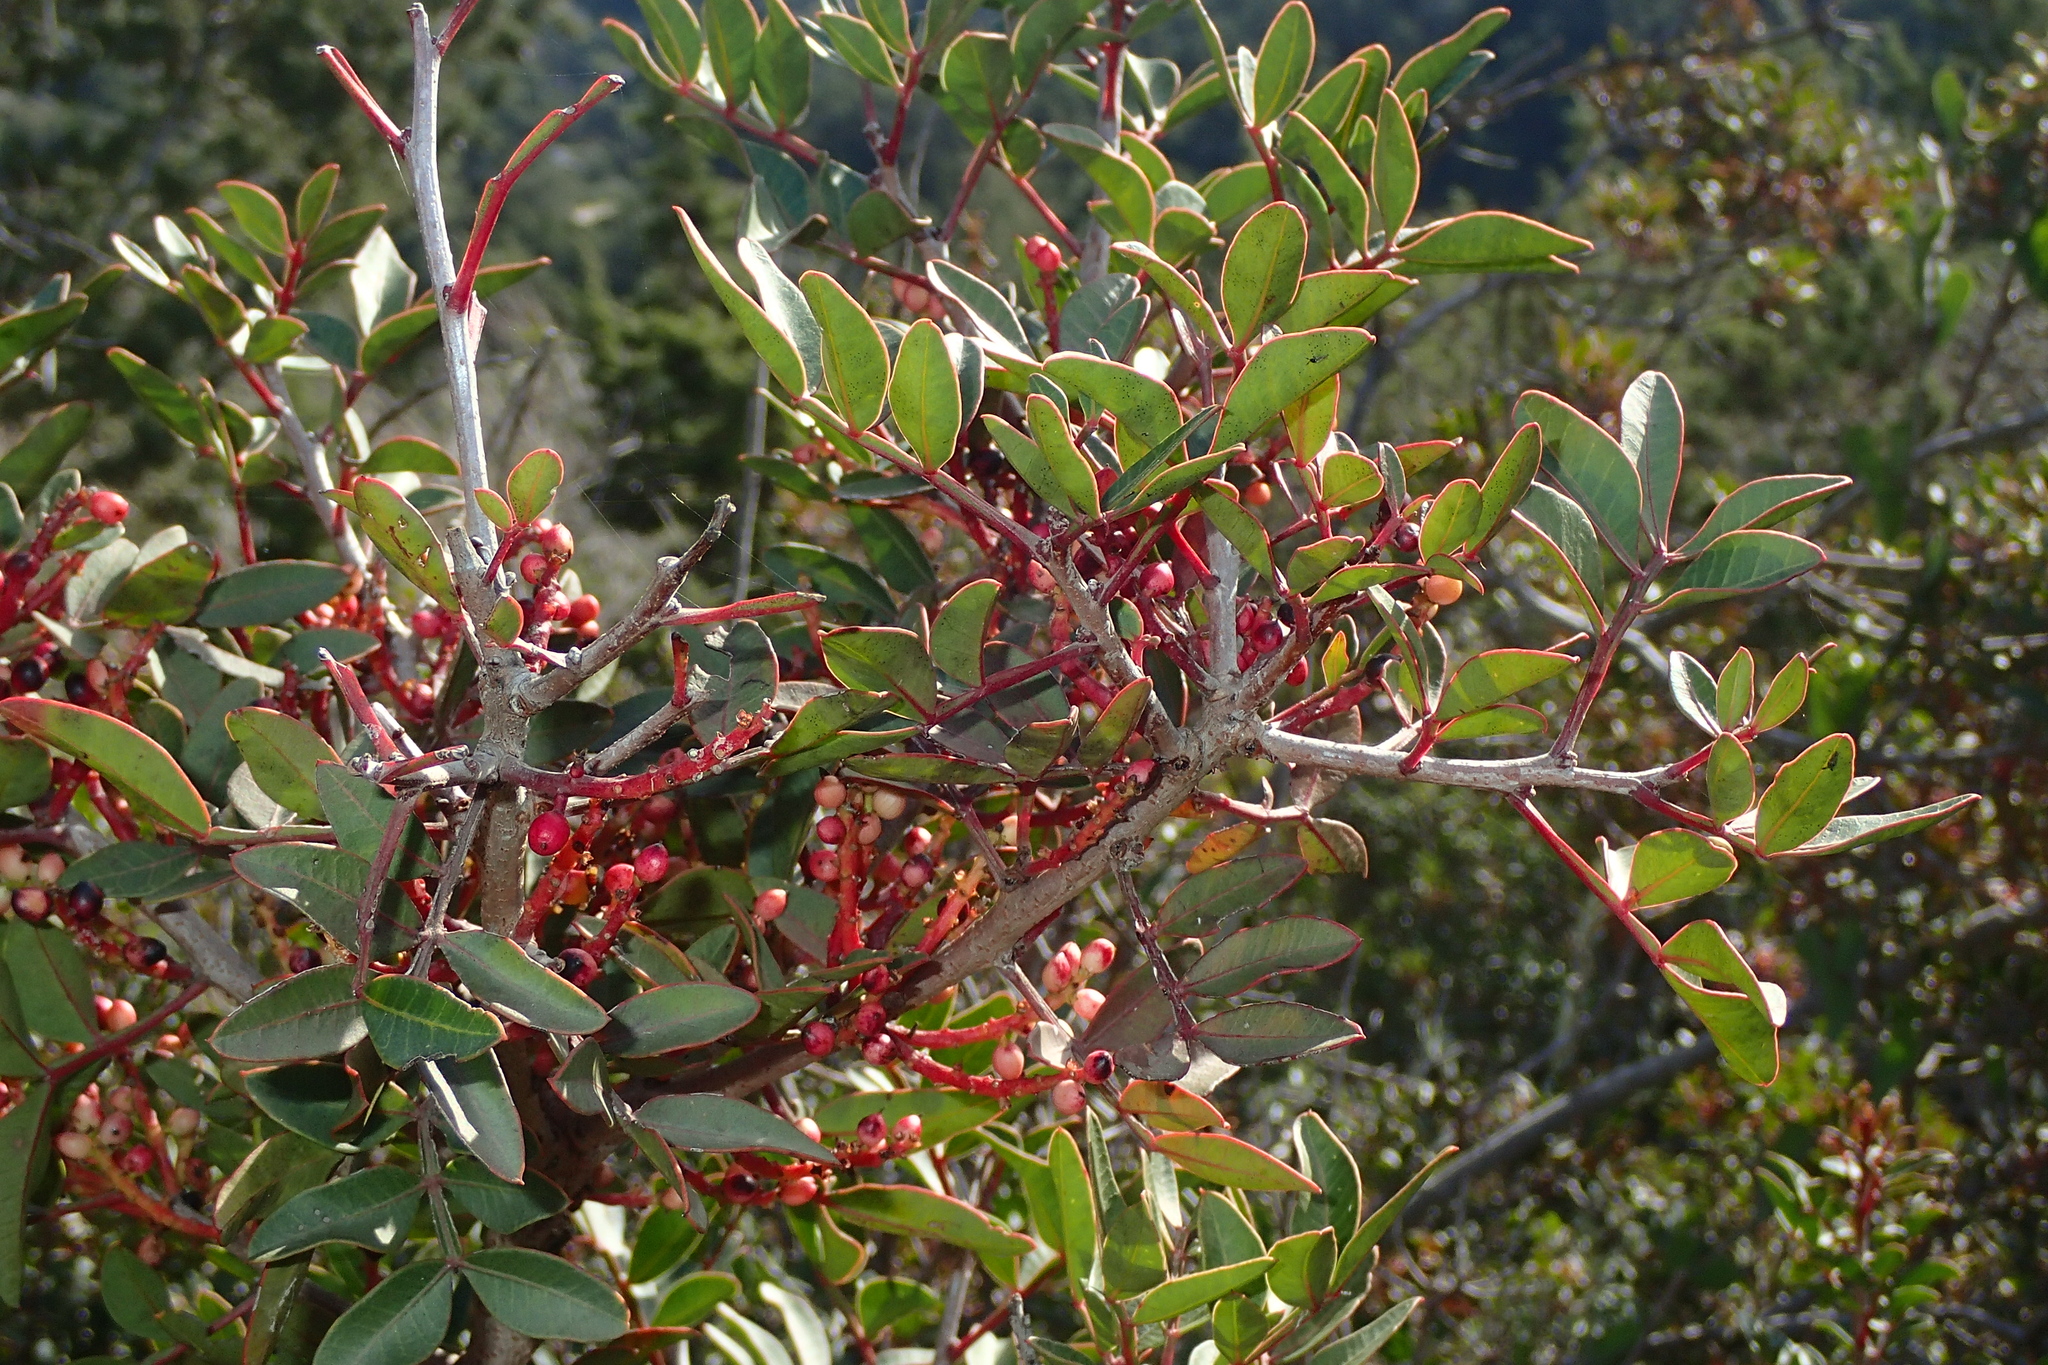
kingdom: Plantae
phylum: Tracheophyta
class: Magnoliopsida
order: Sapindales
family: Anacardiaceae
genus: Pistacia
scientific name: Pistacia lentiscus
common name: Lentisk
